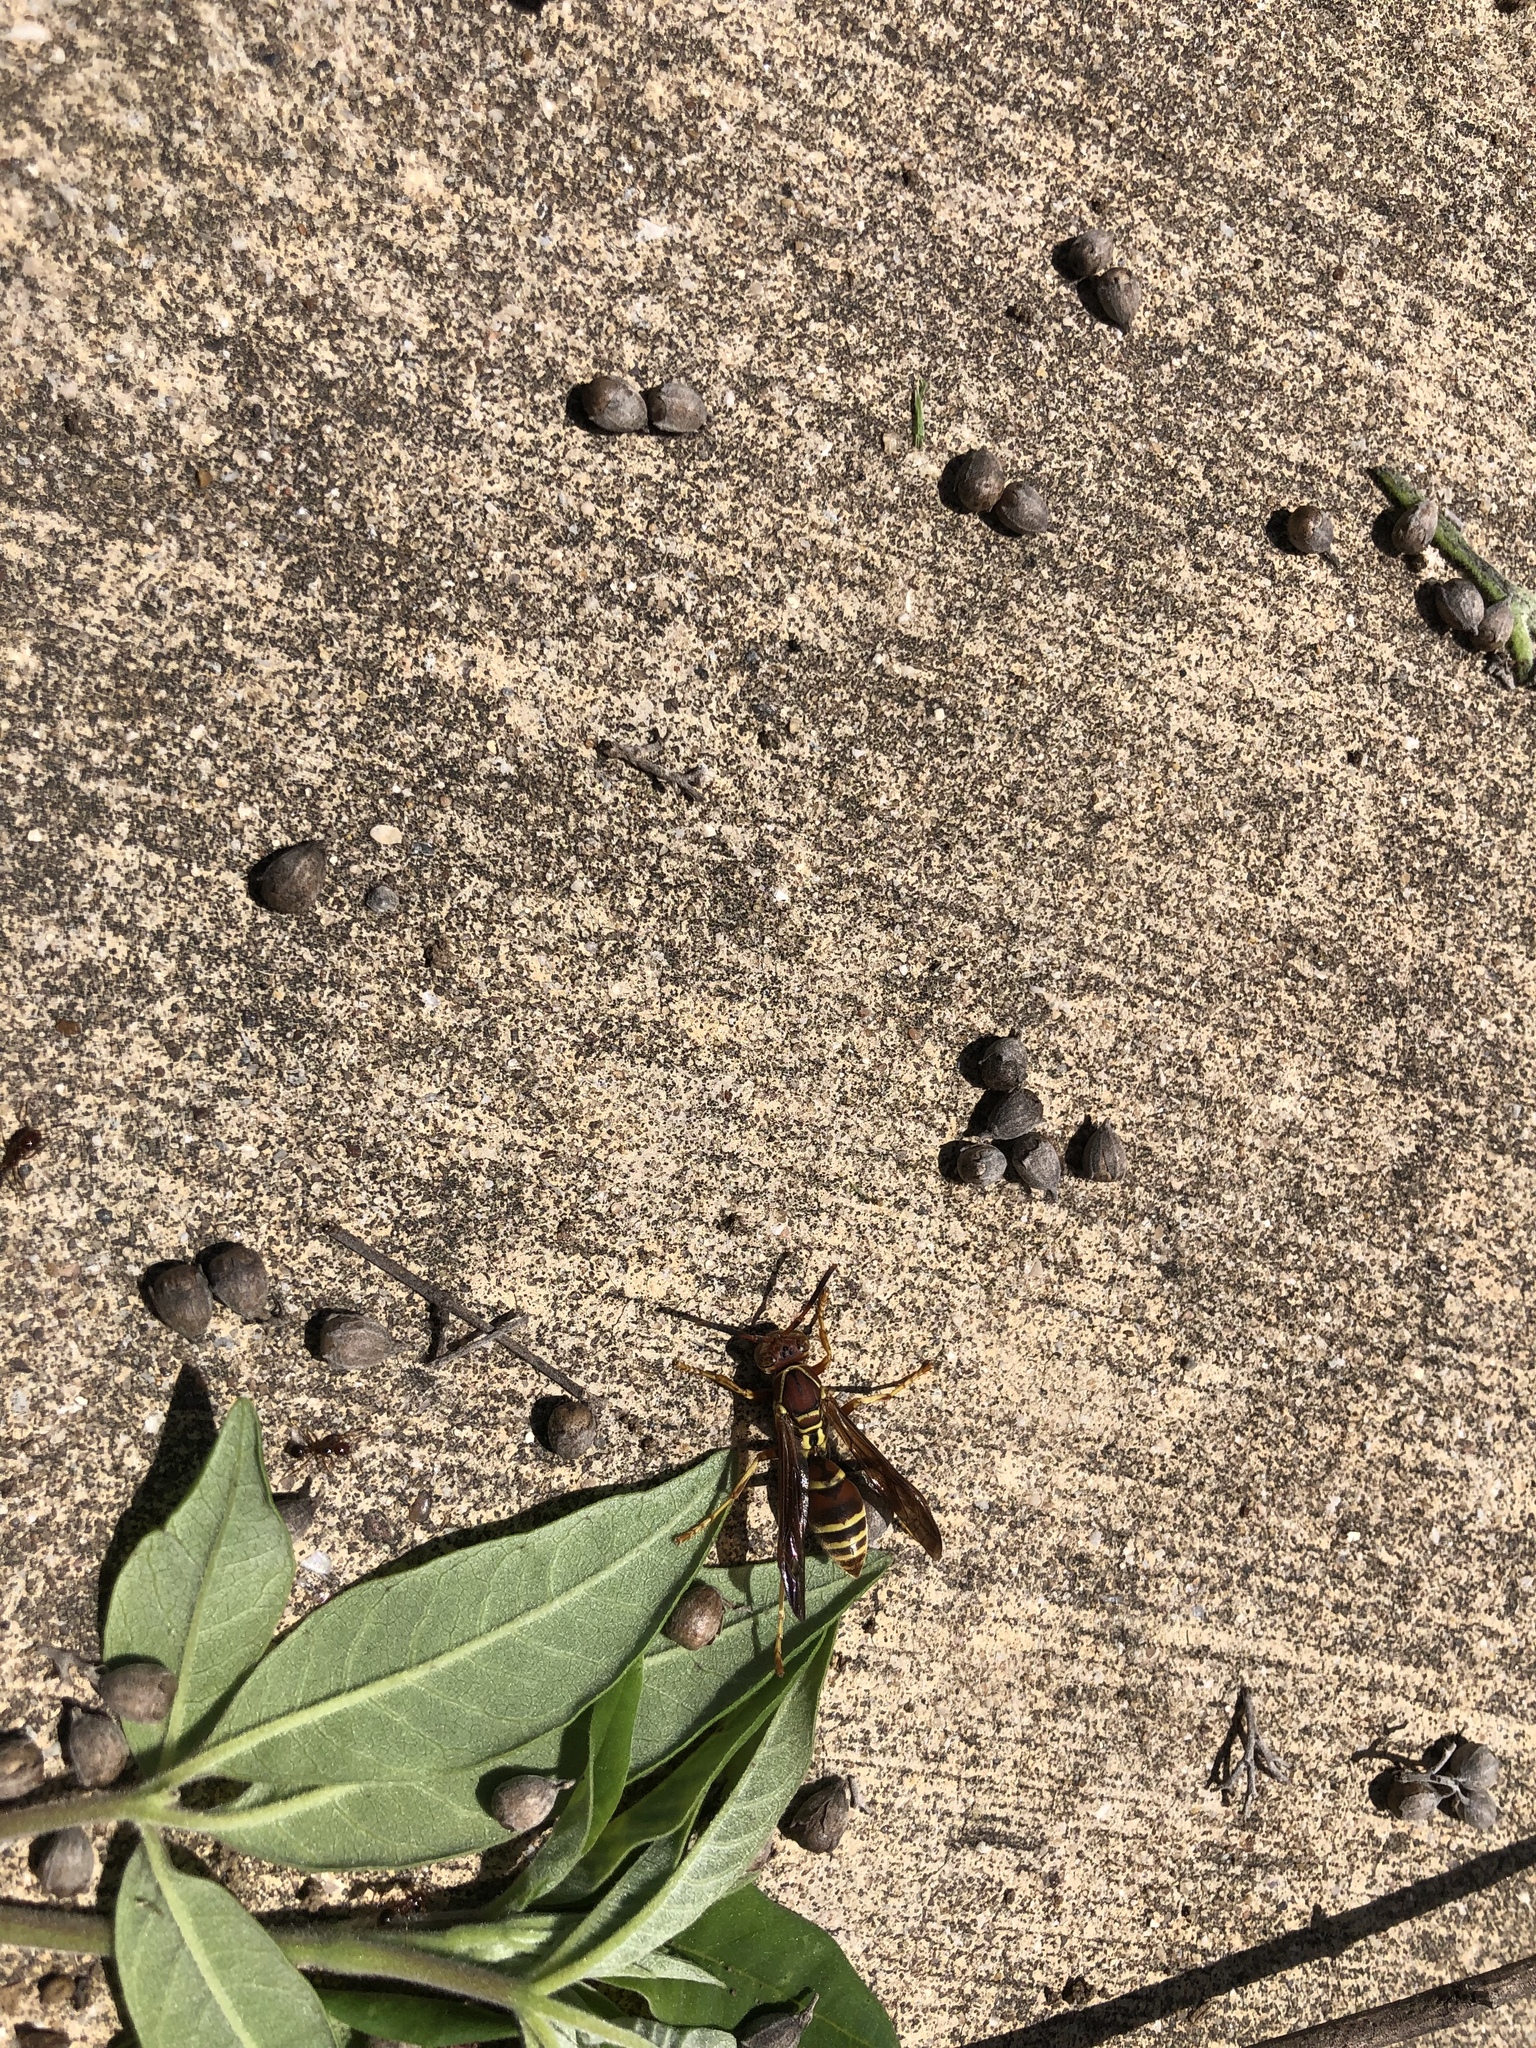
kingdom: Animalia
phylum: Arthropoda
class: Insecta
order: Hymenoptera
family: Eumenidae
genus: Polistes
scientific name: Polistes dorsalis
